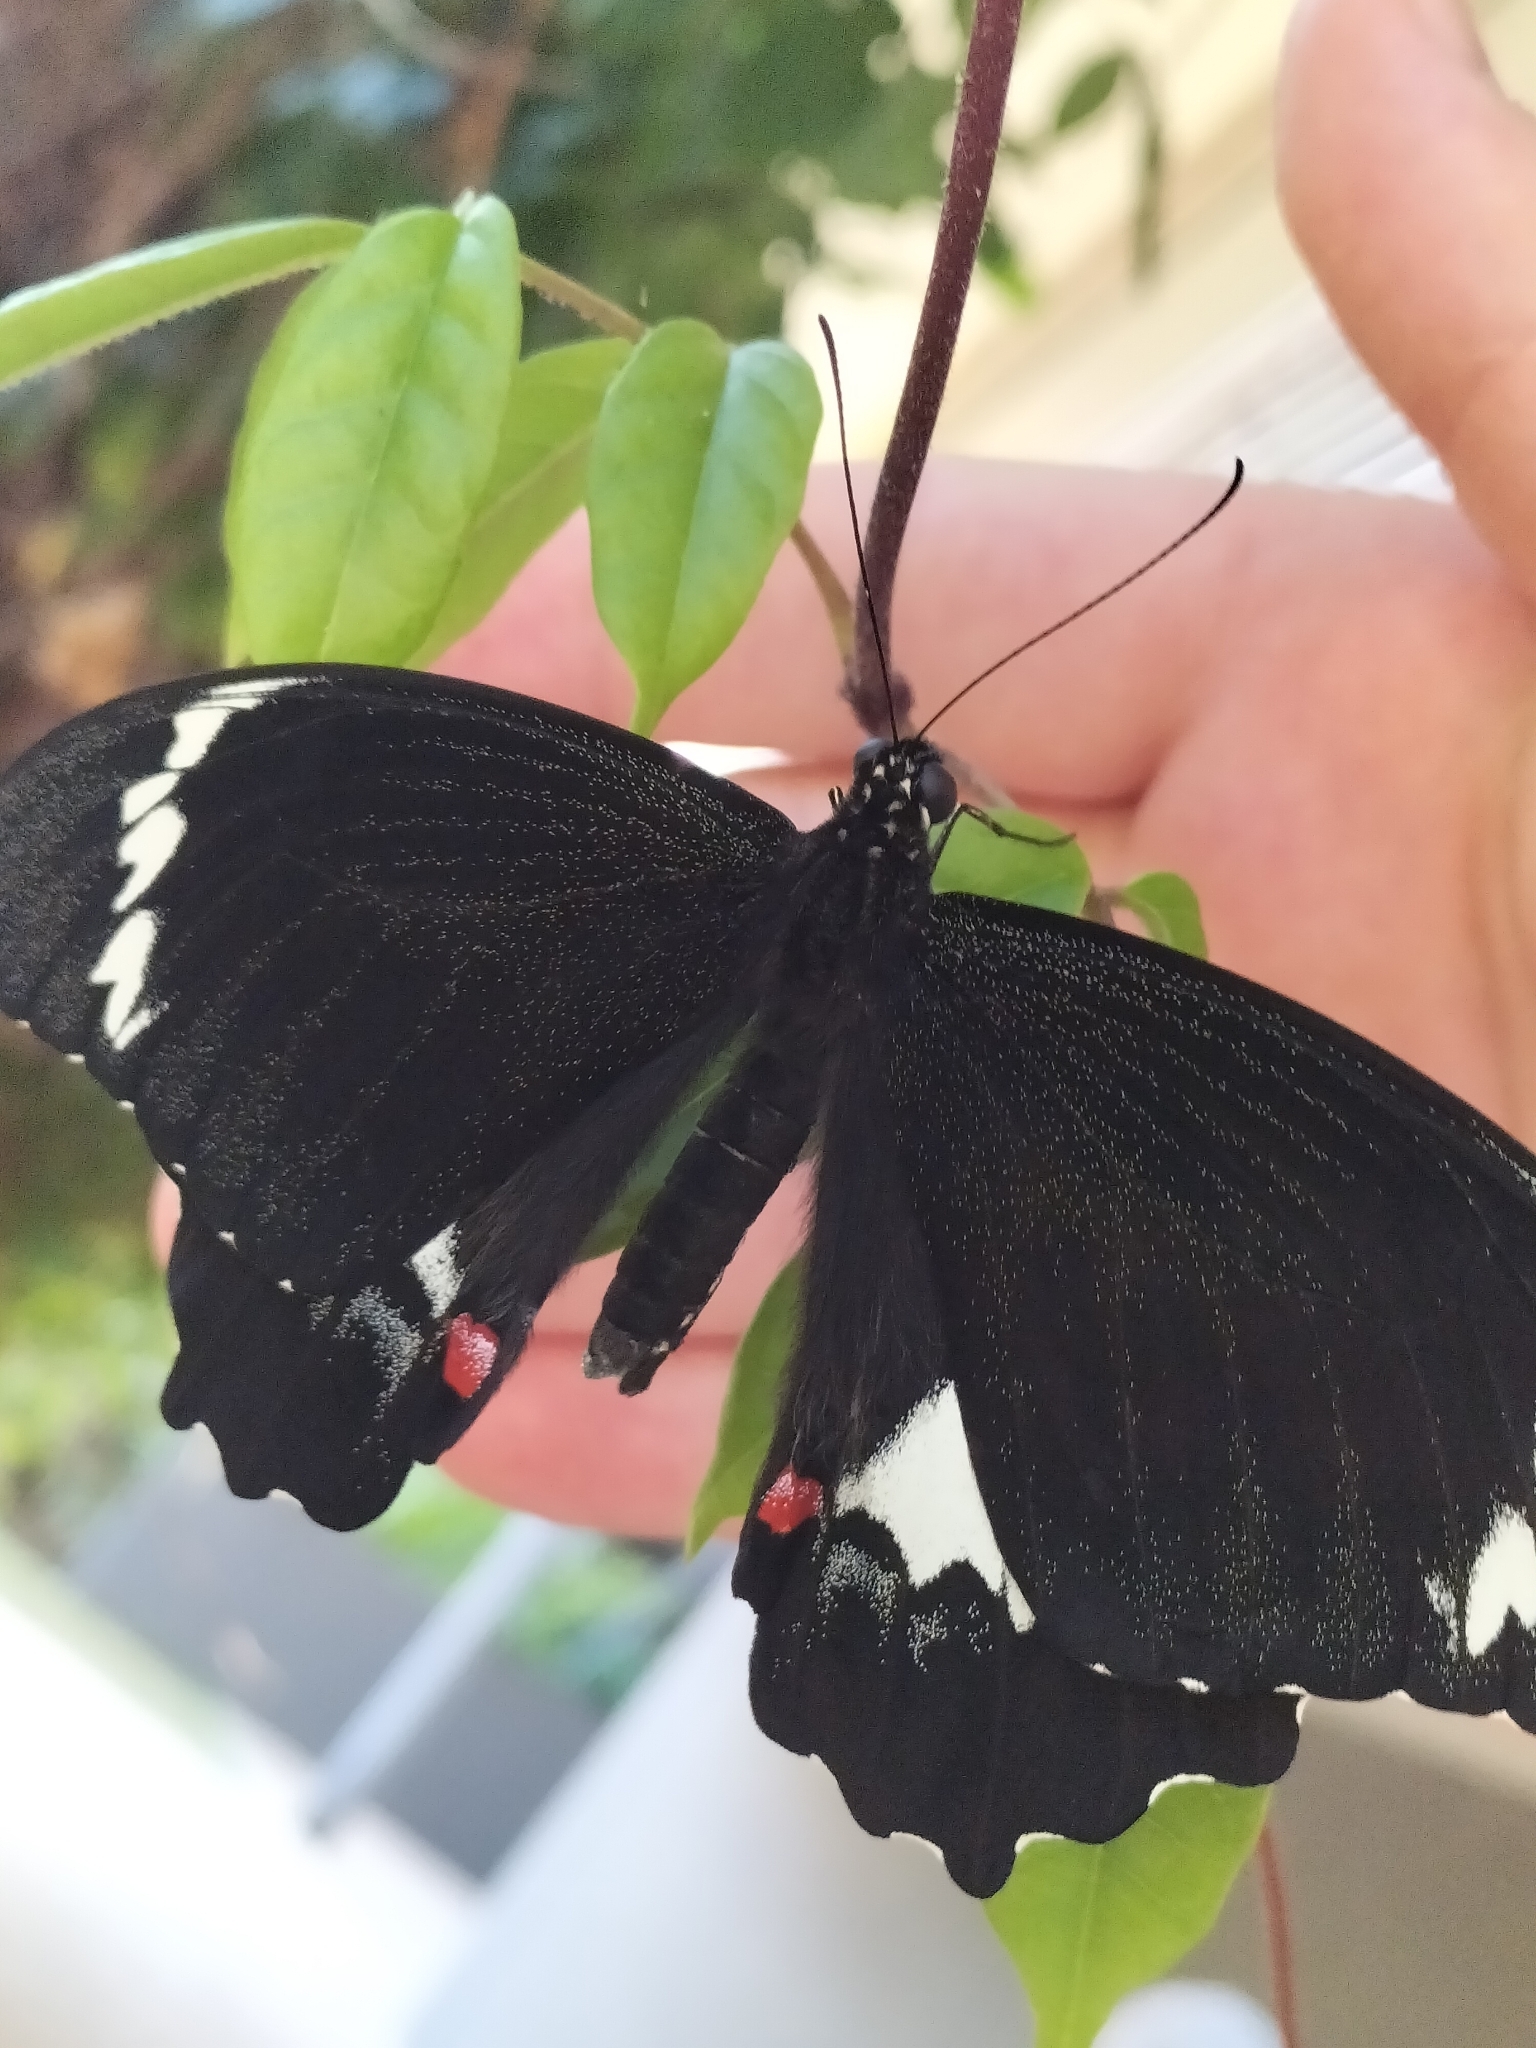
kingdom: Animalia
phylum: Arthropoda
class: Insecta
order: Lepidoptera
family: Papilionidae
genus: Papilio
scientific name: Papilio aegeus
